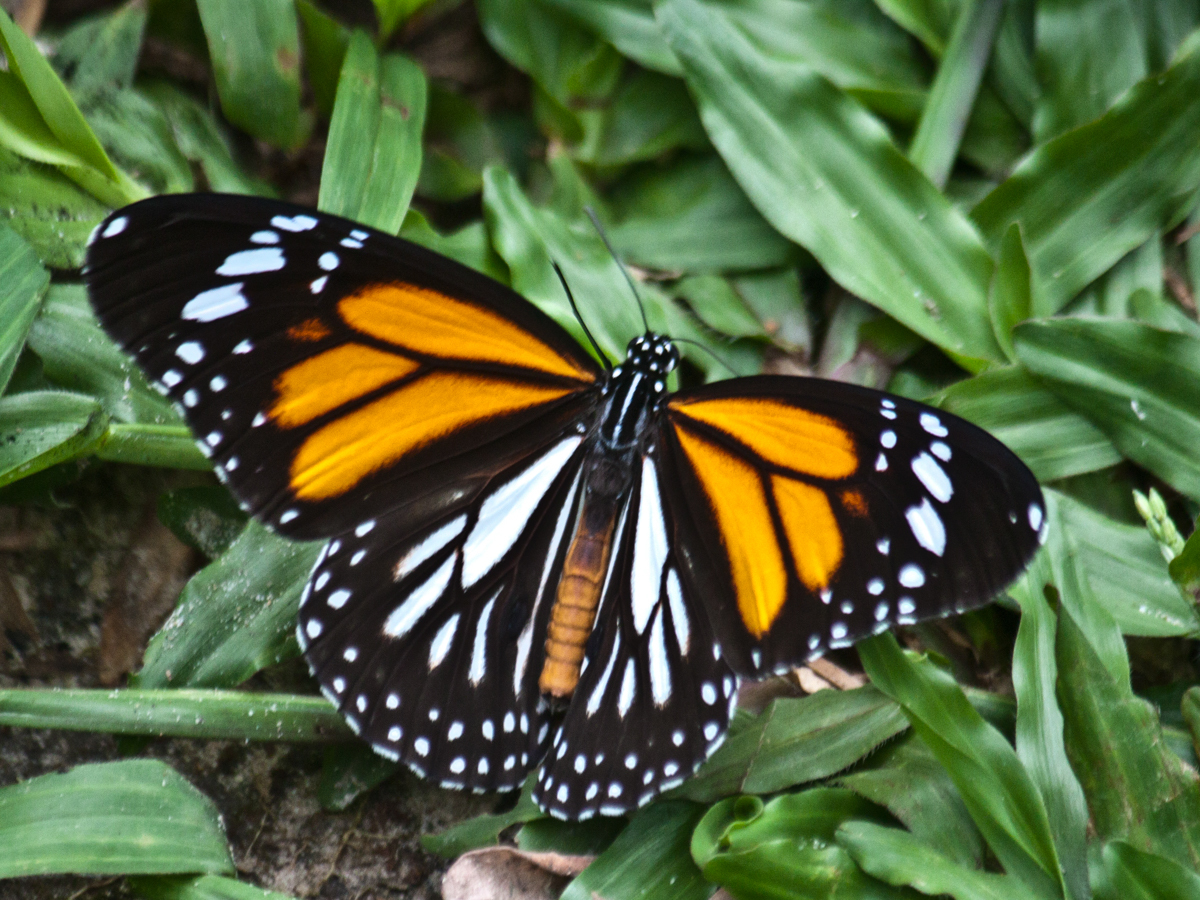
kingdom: Animalia
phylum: Arthropoda
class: Insecta
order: Lepidoptera
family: Nymphalidae
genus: Danaus
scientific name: Danaus melanippus
